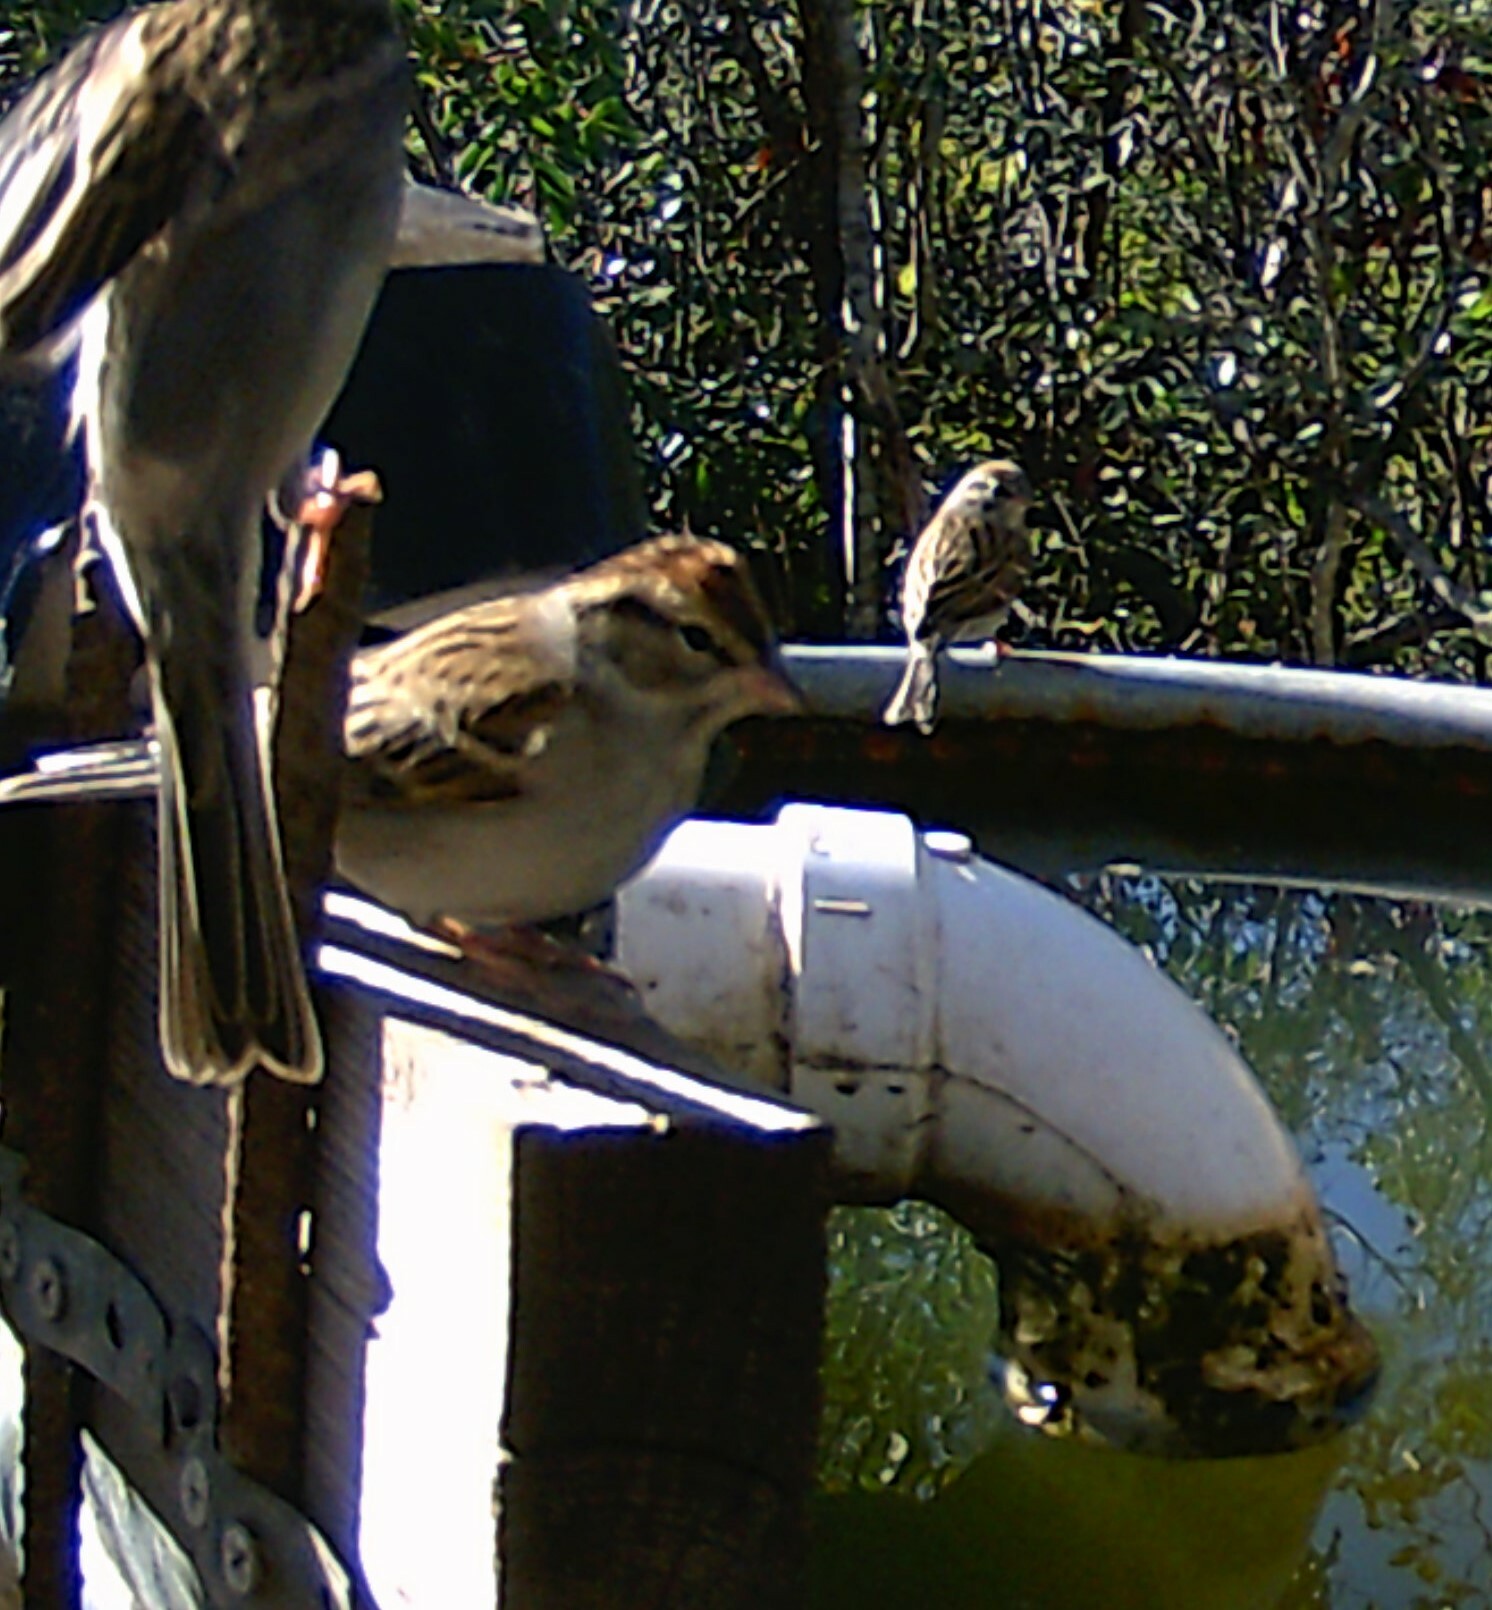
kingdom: Animalia
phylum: Chordata
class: Aves
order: Passeriformes
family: Passerellidae
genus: Spizella
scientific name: Spizella passerina
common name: Chipping sparrow
